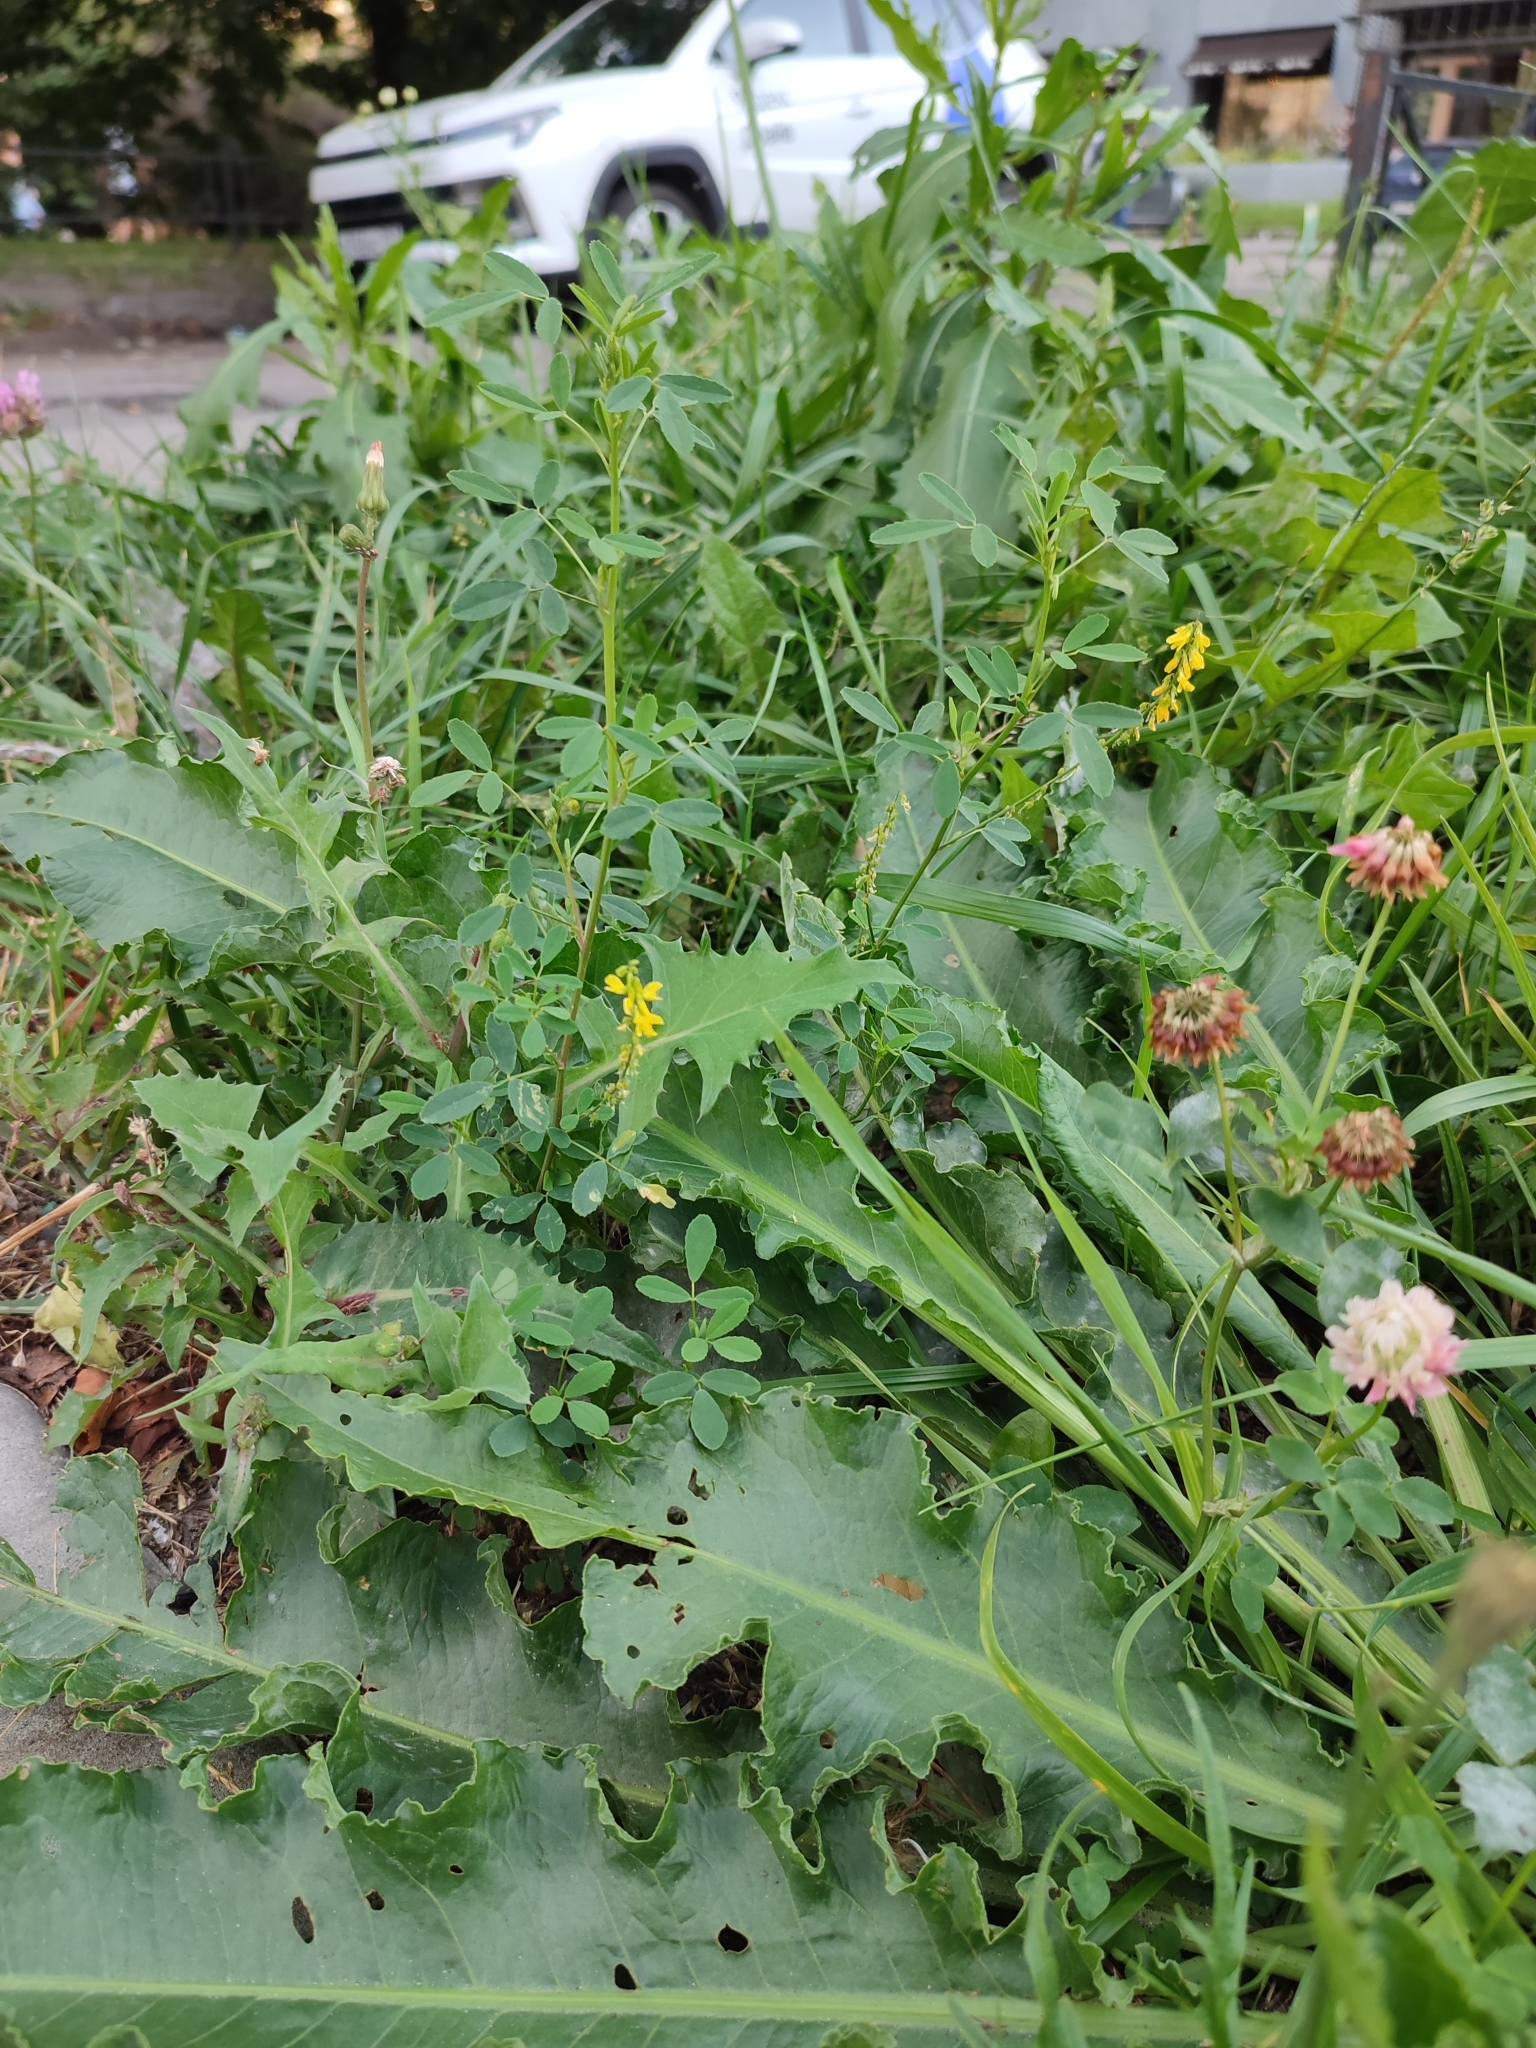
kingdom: Plantae
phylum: Tracheophyta
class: Magnoliopsida
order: Fabales
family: Fabaceae
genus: Melilotus
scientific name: Melilotus officinalis
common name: Sweetclover
